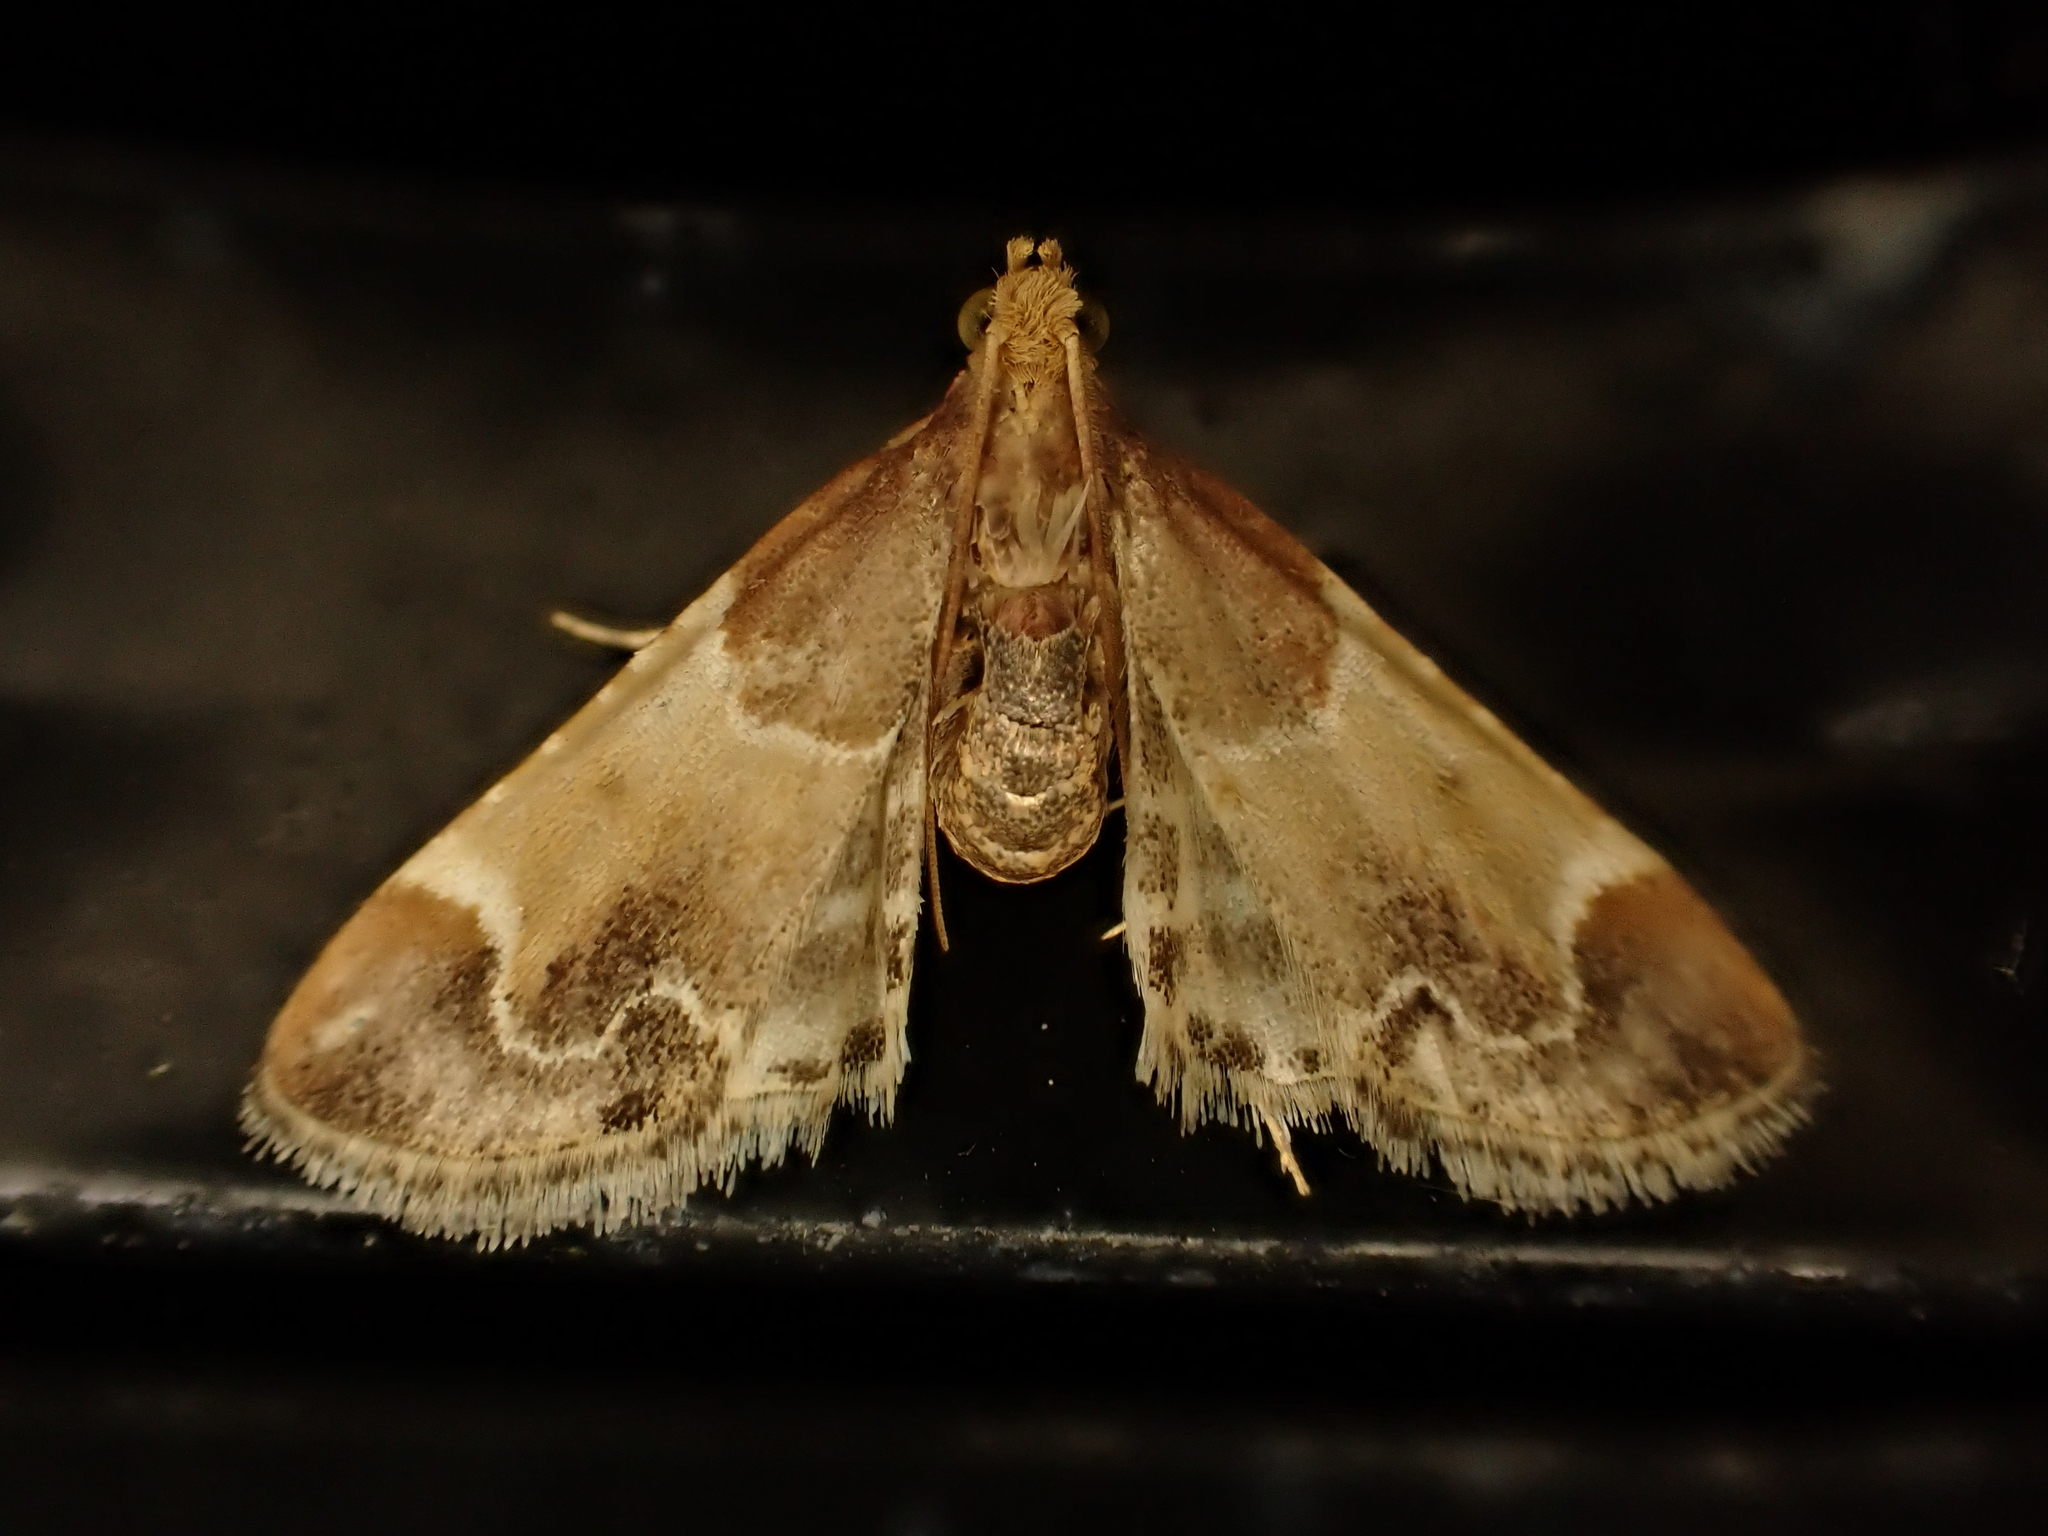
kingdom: Animalia
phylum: Arthropoda
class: Insecta
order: Lepidoptera
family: Pyralidae
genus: Pyralis
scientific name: Pyralis farinalis
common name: Meal moth
